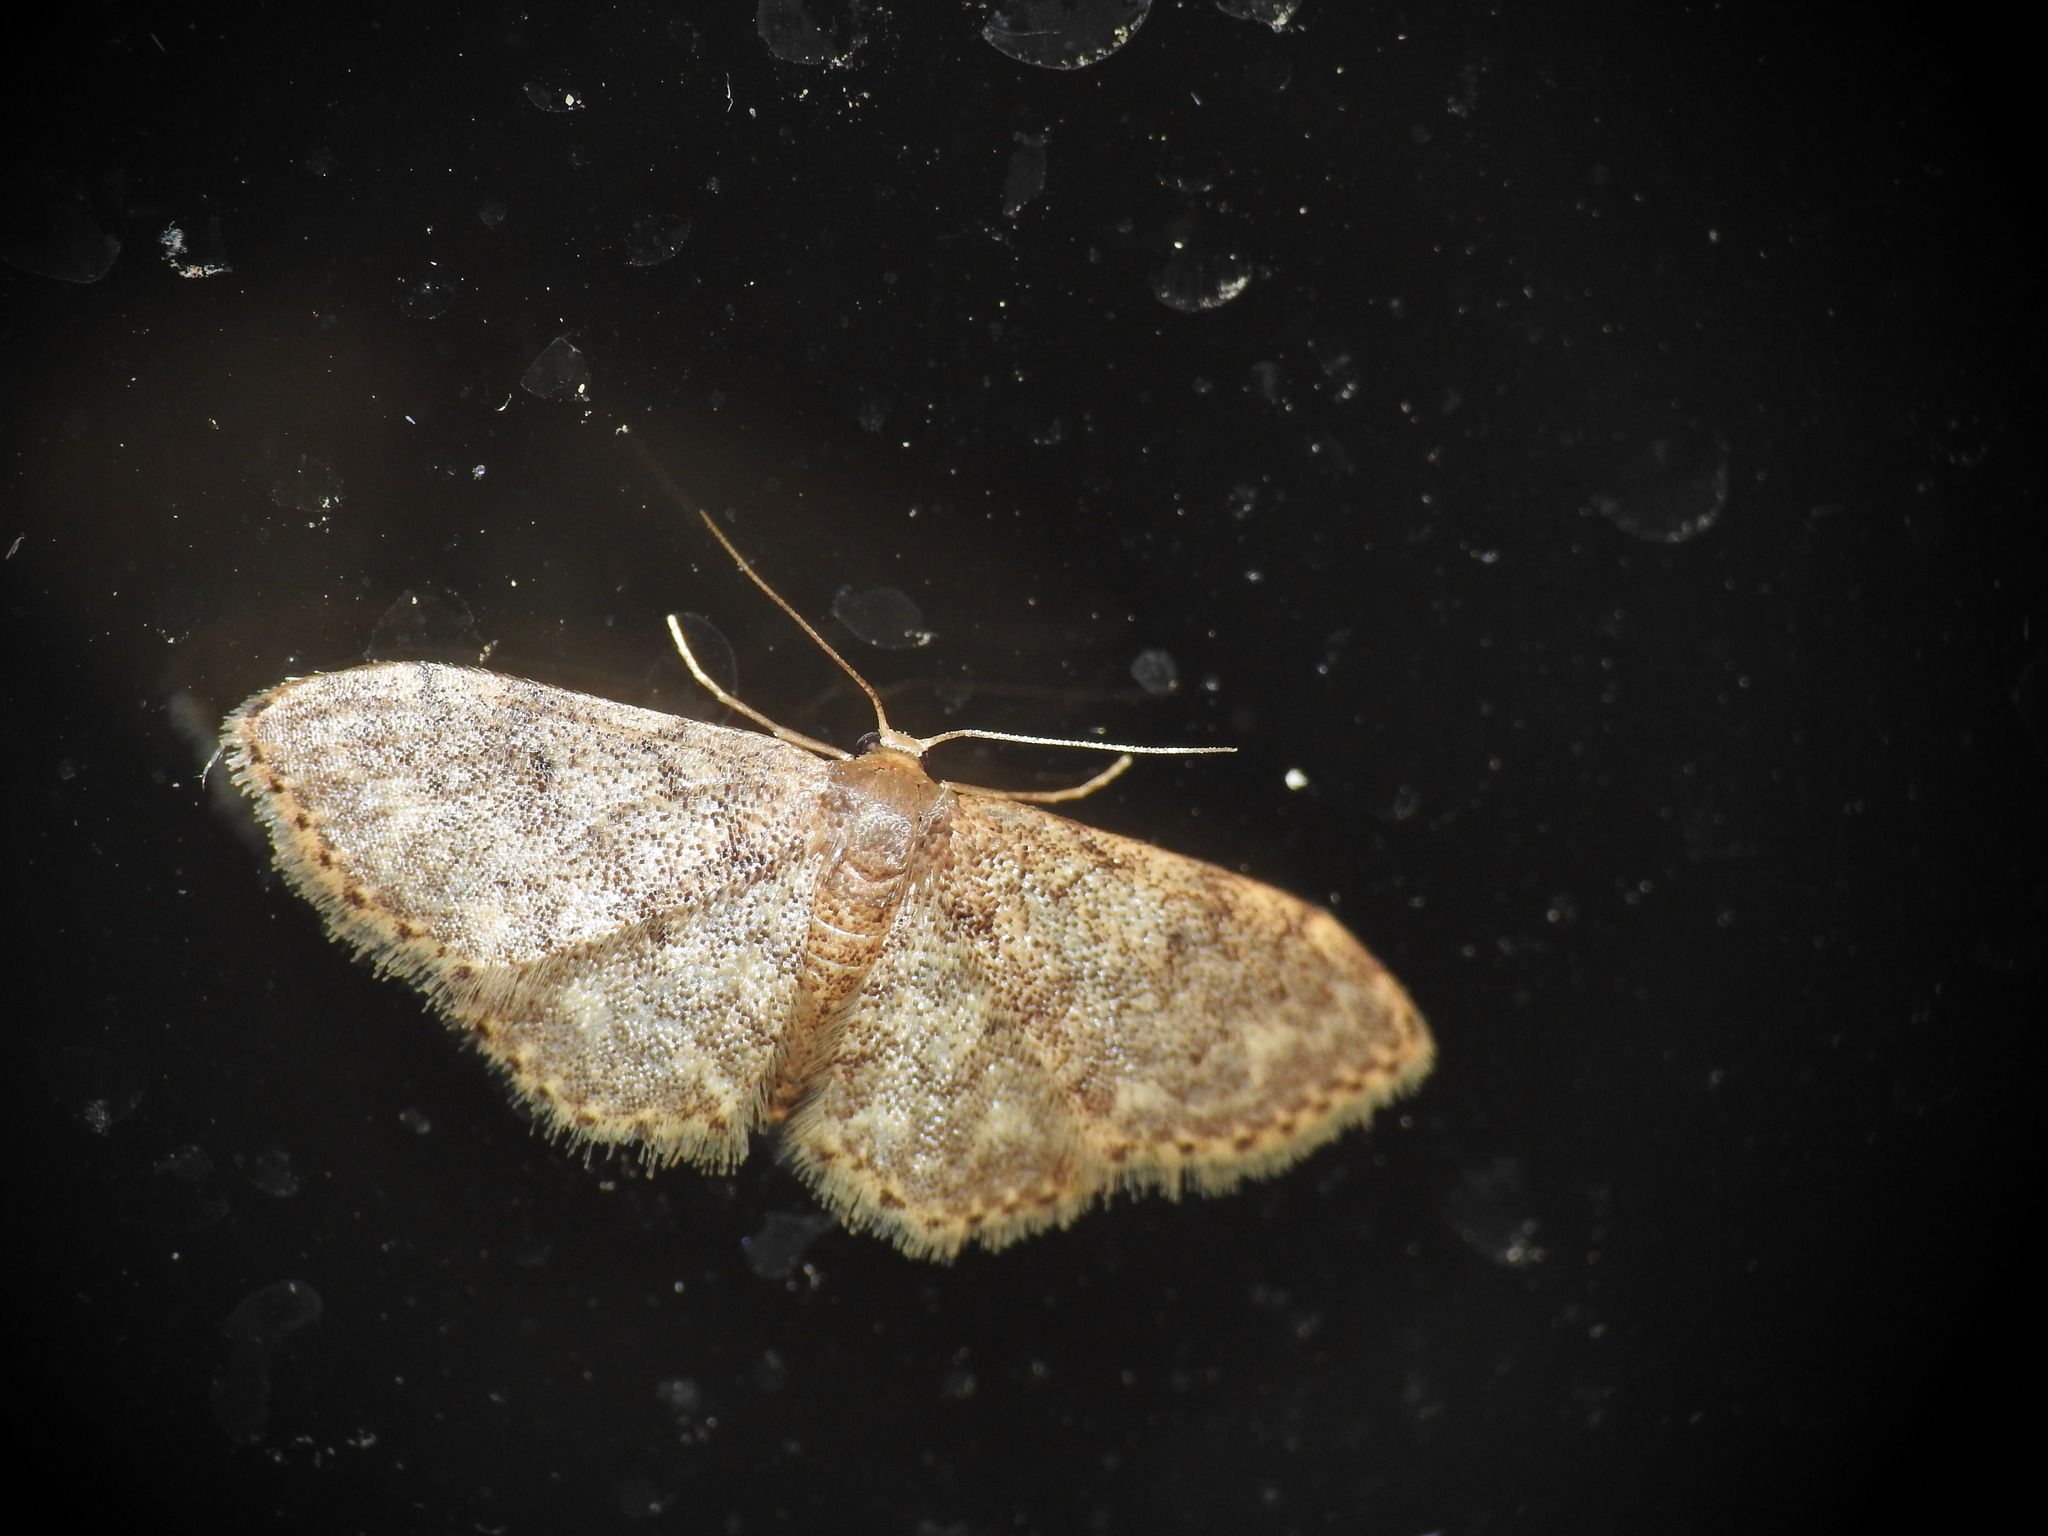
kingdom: Animalia
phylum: Arthropoda
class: Insecta
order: Lepidoptera
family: Geometridae
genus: Idaea
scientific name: Idaea blaesii
